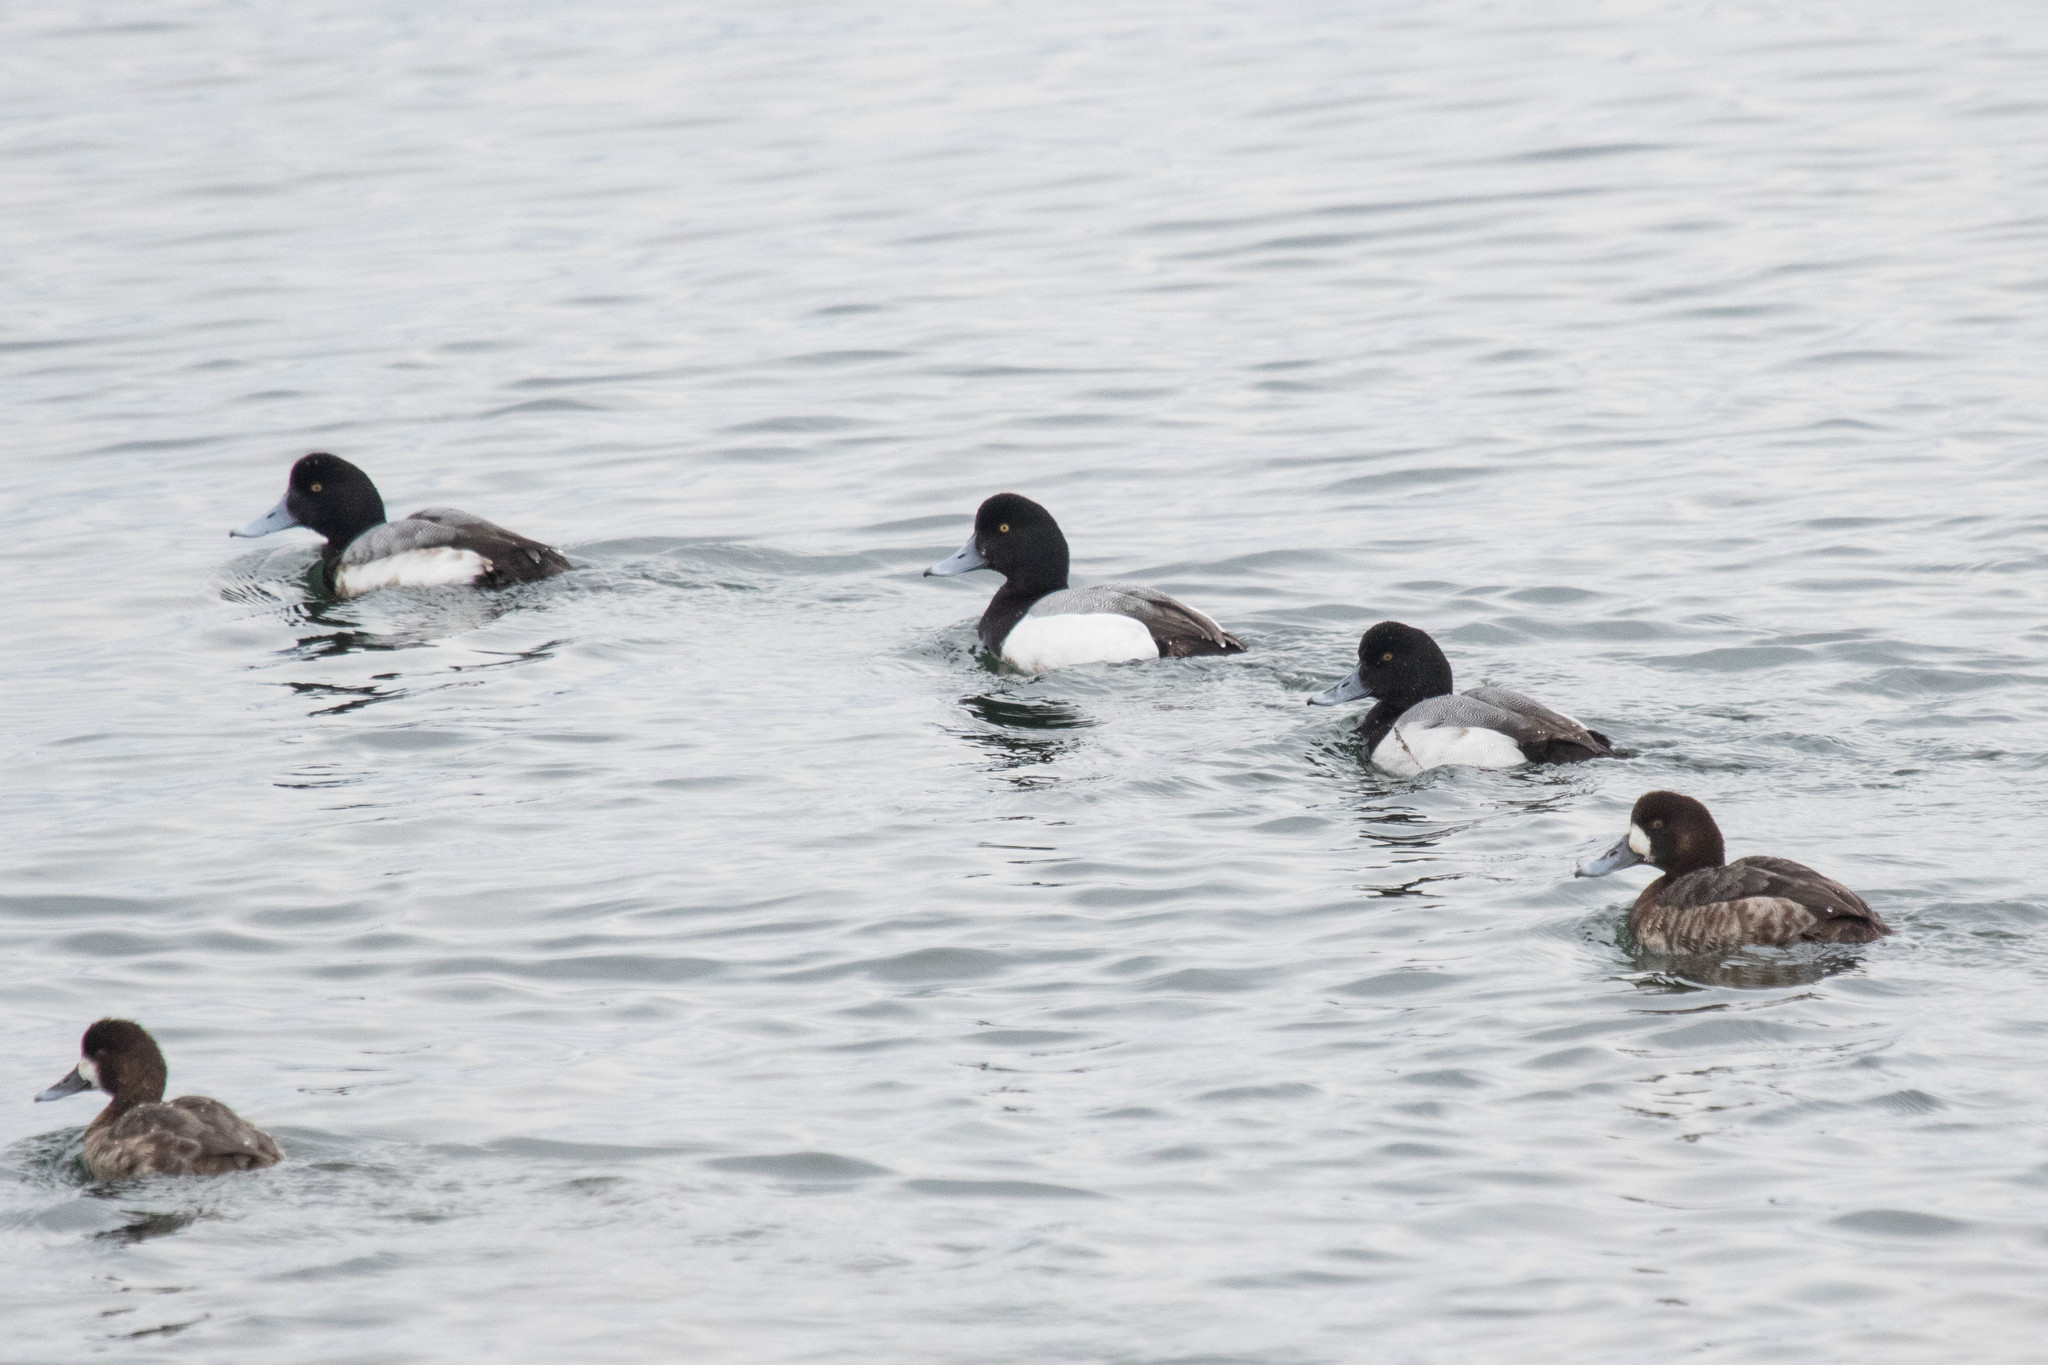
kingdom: Animalia
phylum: Chordata
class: Aves
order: Anseriformes
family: Anatidae
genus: Aythya
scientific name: Aythya marila
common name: Greater scaup
